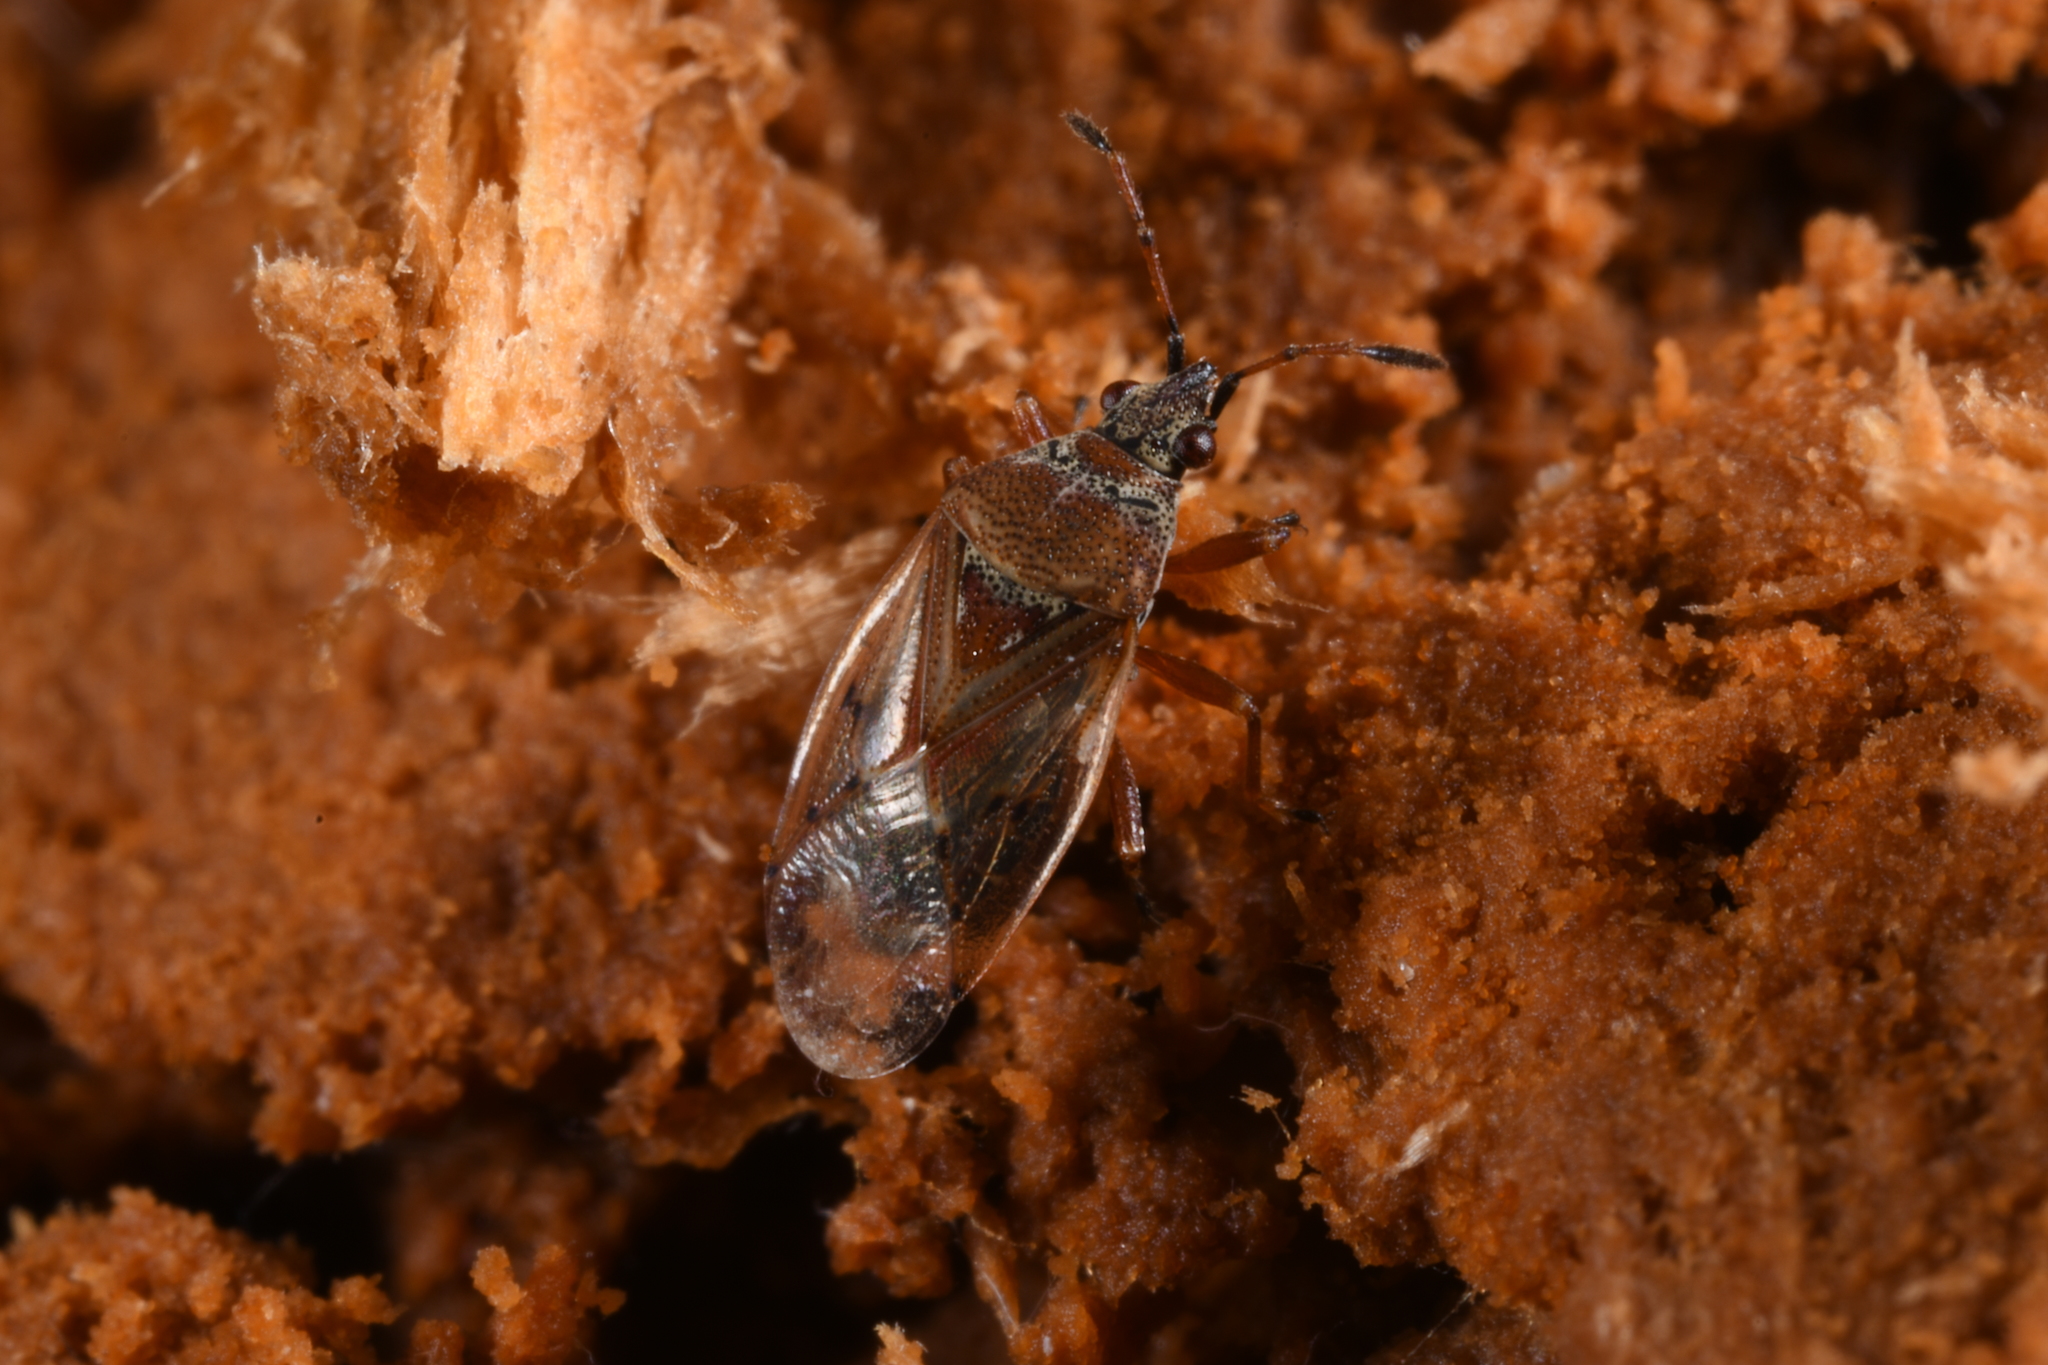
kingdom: Animalia
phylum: Arthropoda
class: Insecta
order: Hemiptera
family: Lygaeidae
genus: Kleidocerys
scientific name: Kleidocerys resedae
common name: Birch catkin bug
